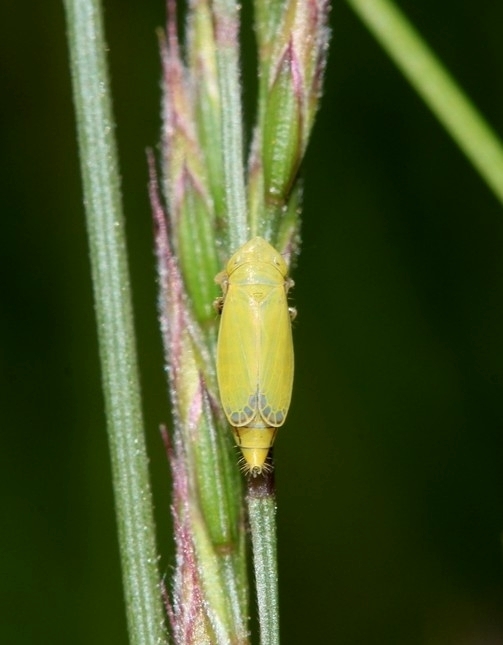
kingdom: Animalia
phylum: Arthropoda
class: Insecta
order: Hemiptera
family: Cicadellidae
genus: Diplocolenus
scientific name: Diplocolenus abdominalis
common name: Leafhopper
